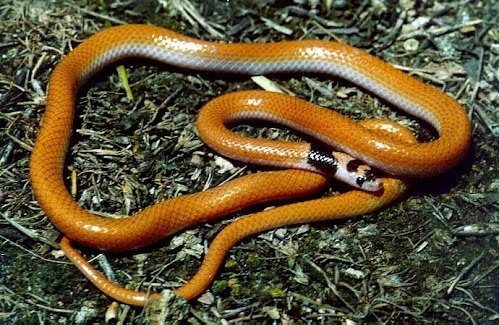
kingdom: Animalia
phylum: Chordata
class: Squamata
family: Colubridae
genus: Rhynchocalamus
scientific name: Rhynchocalamus satunini
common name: Palestine kukri snake
